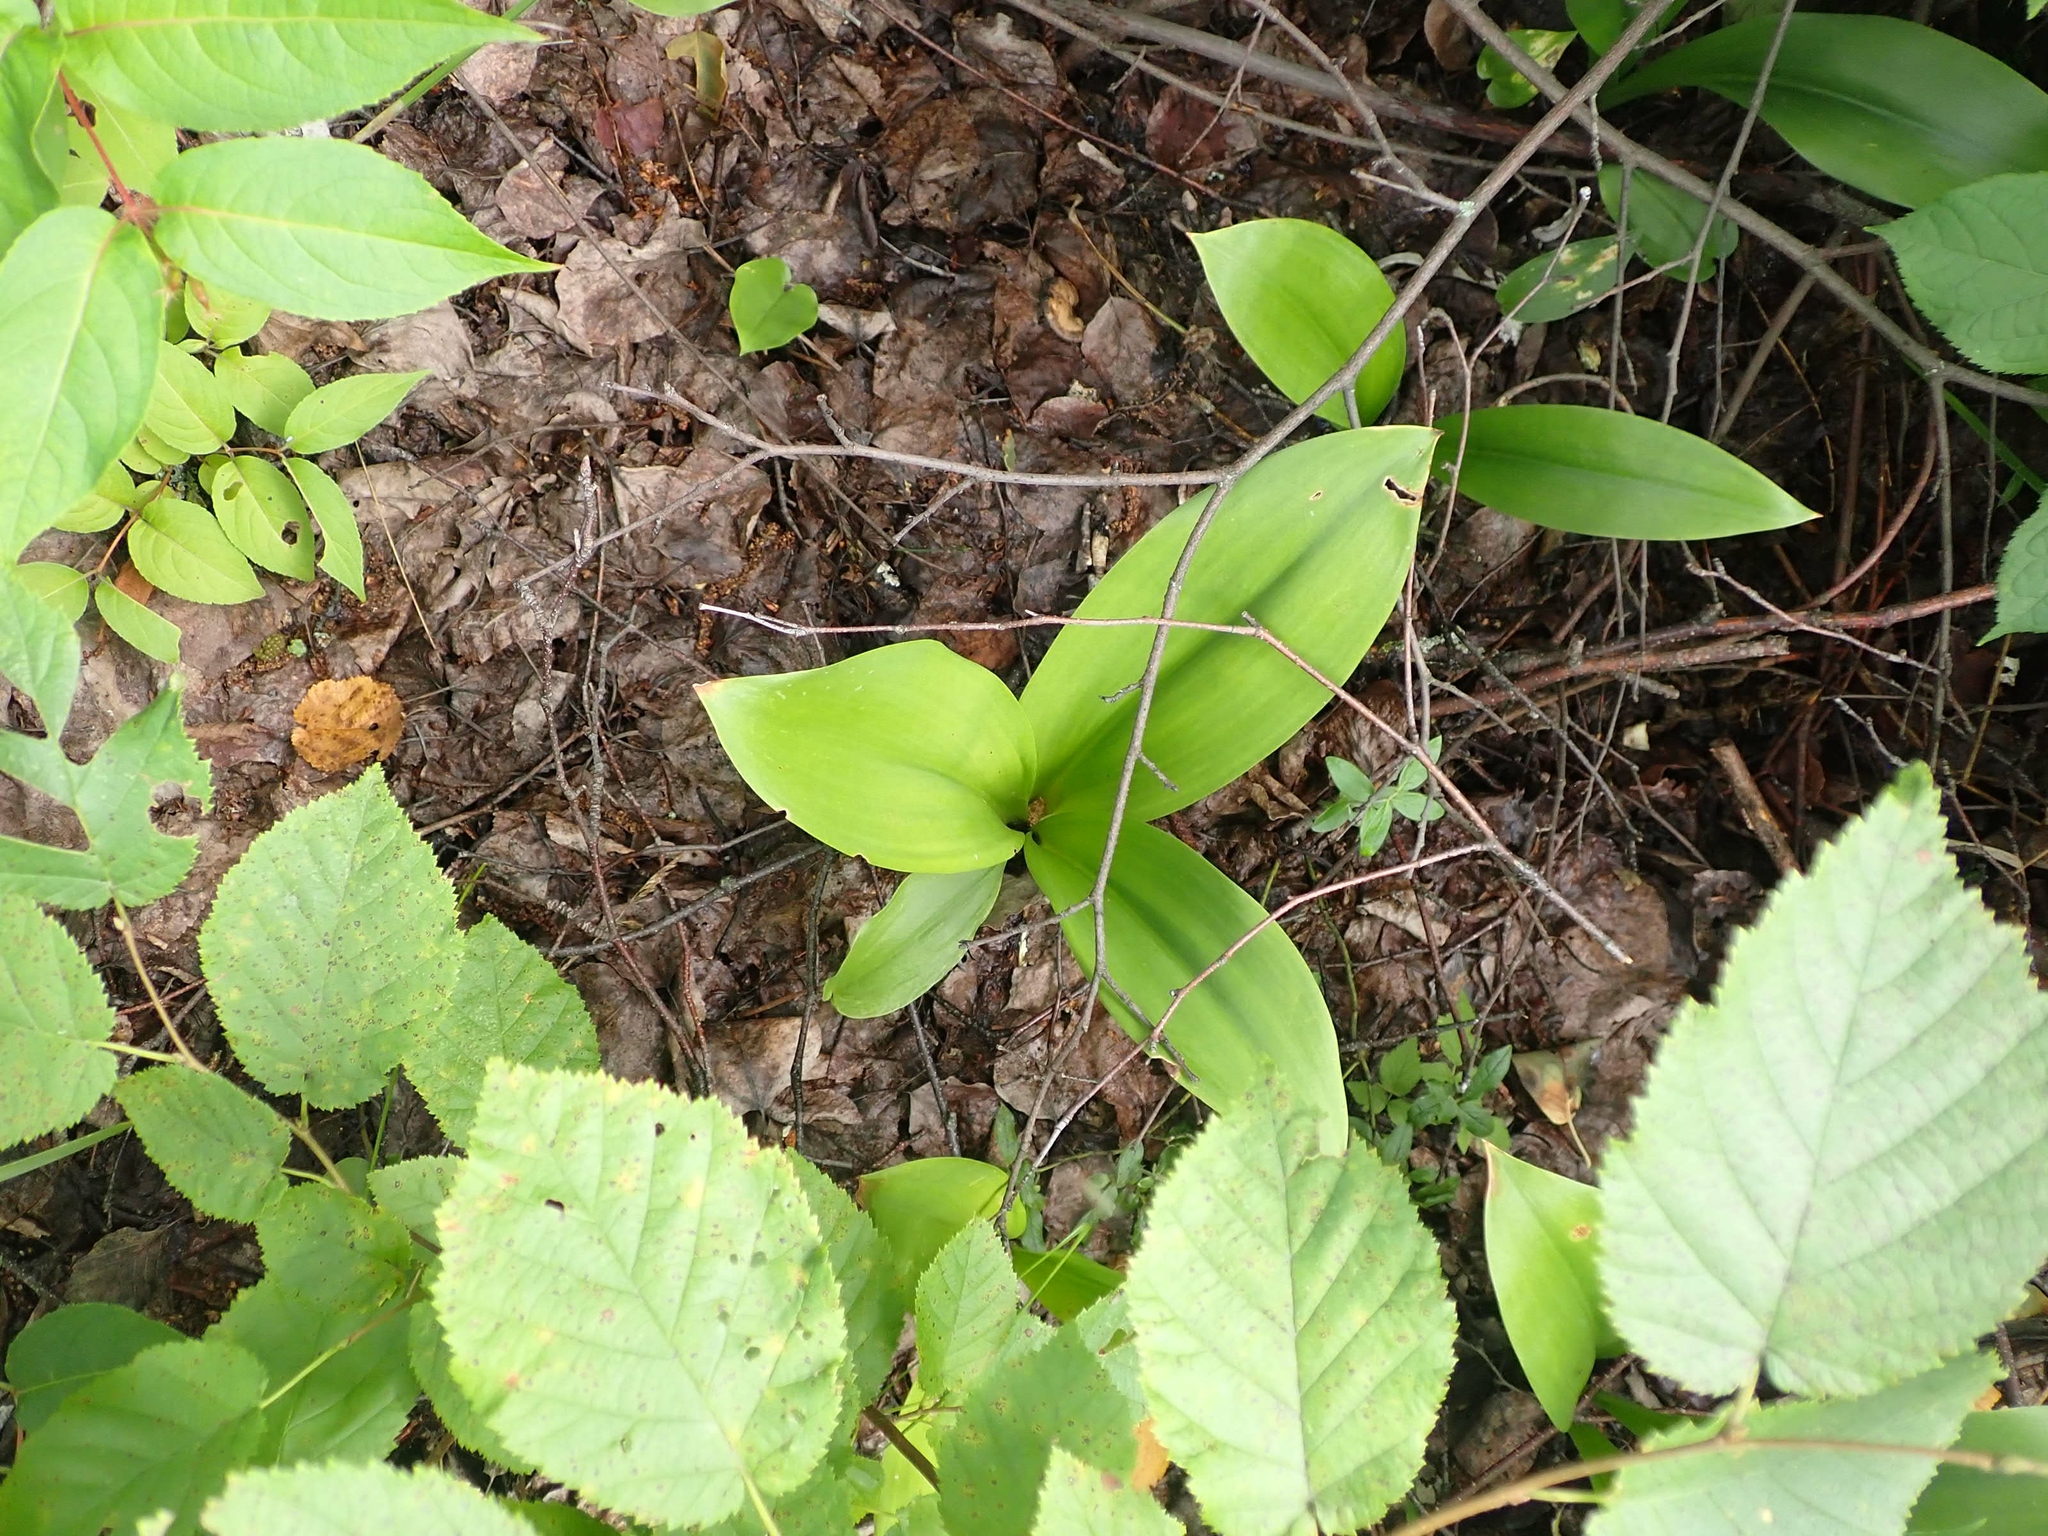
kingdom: Plantae
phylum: Tracheophyta
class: Liliopsida
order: Liliales
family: Liliaceae
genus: Clintonia
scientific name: Clintonia borealis
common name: Yellow clintonia
